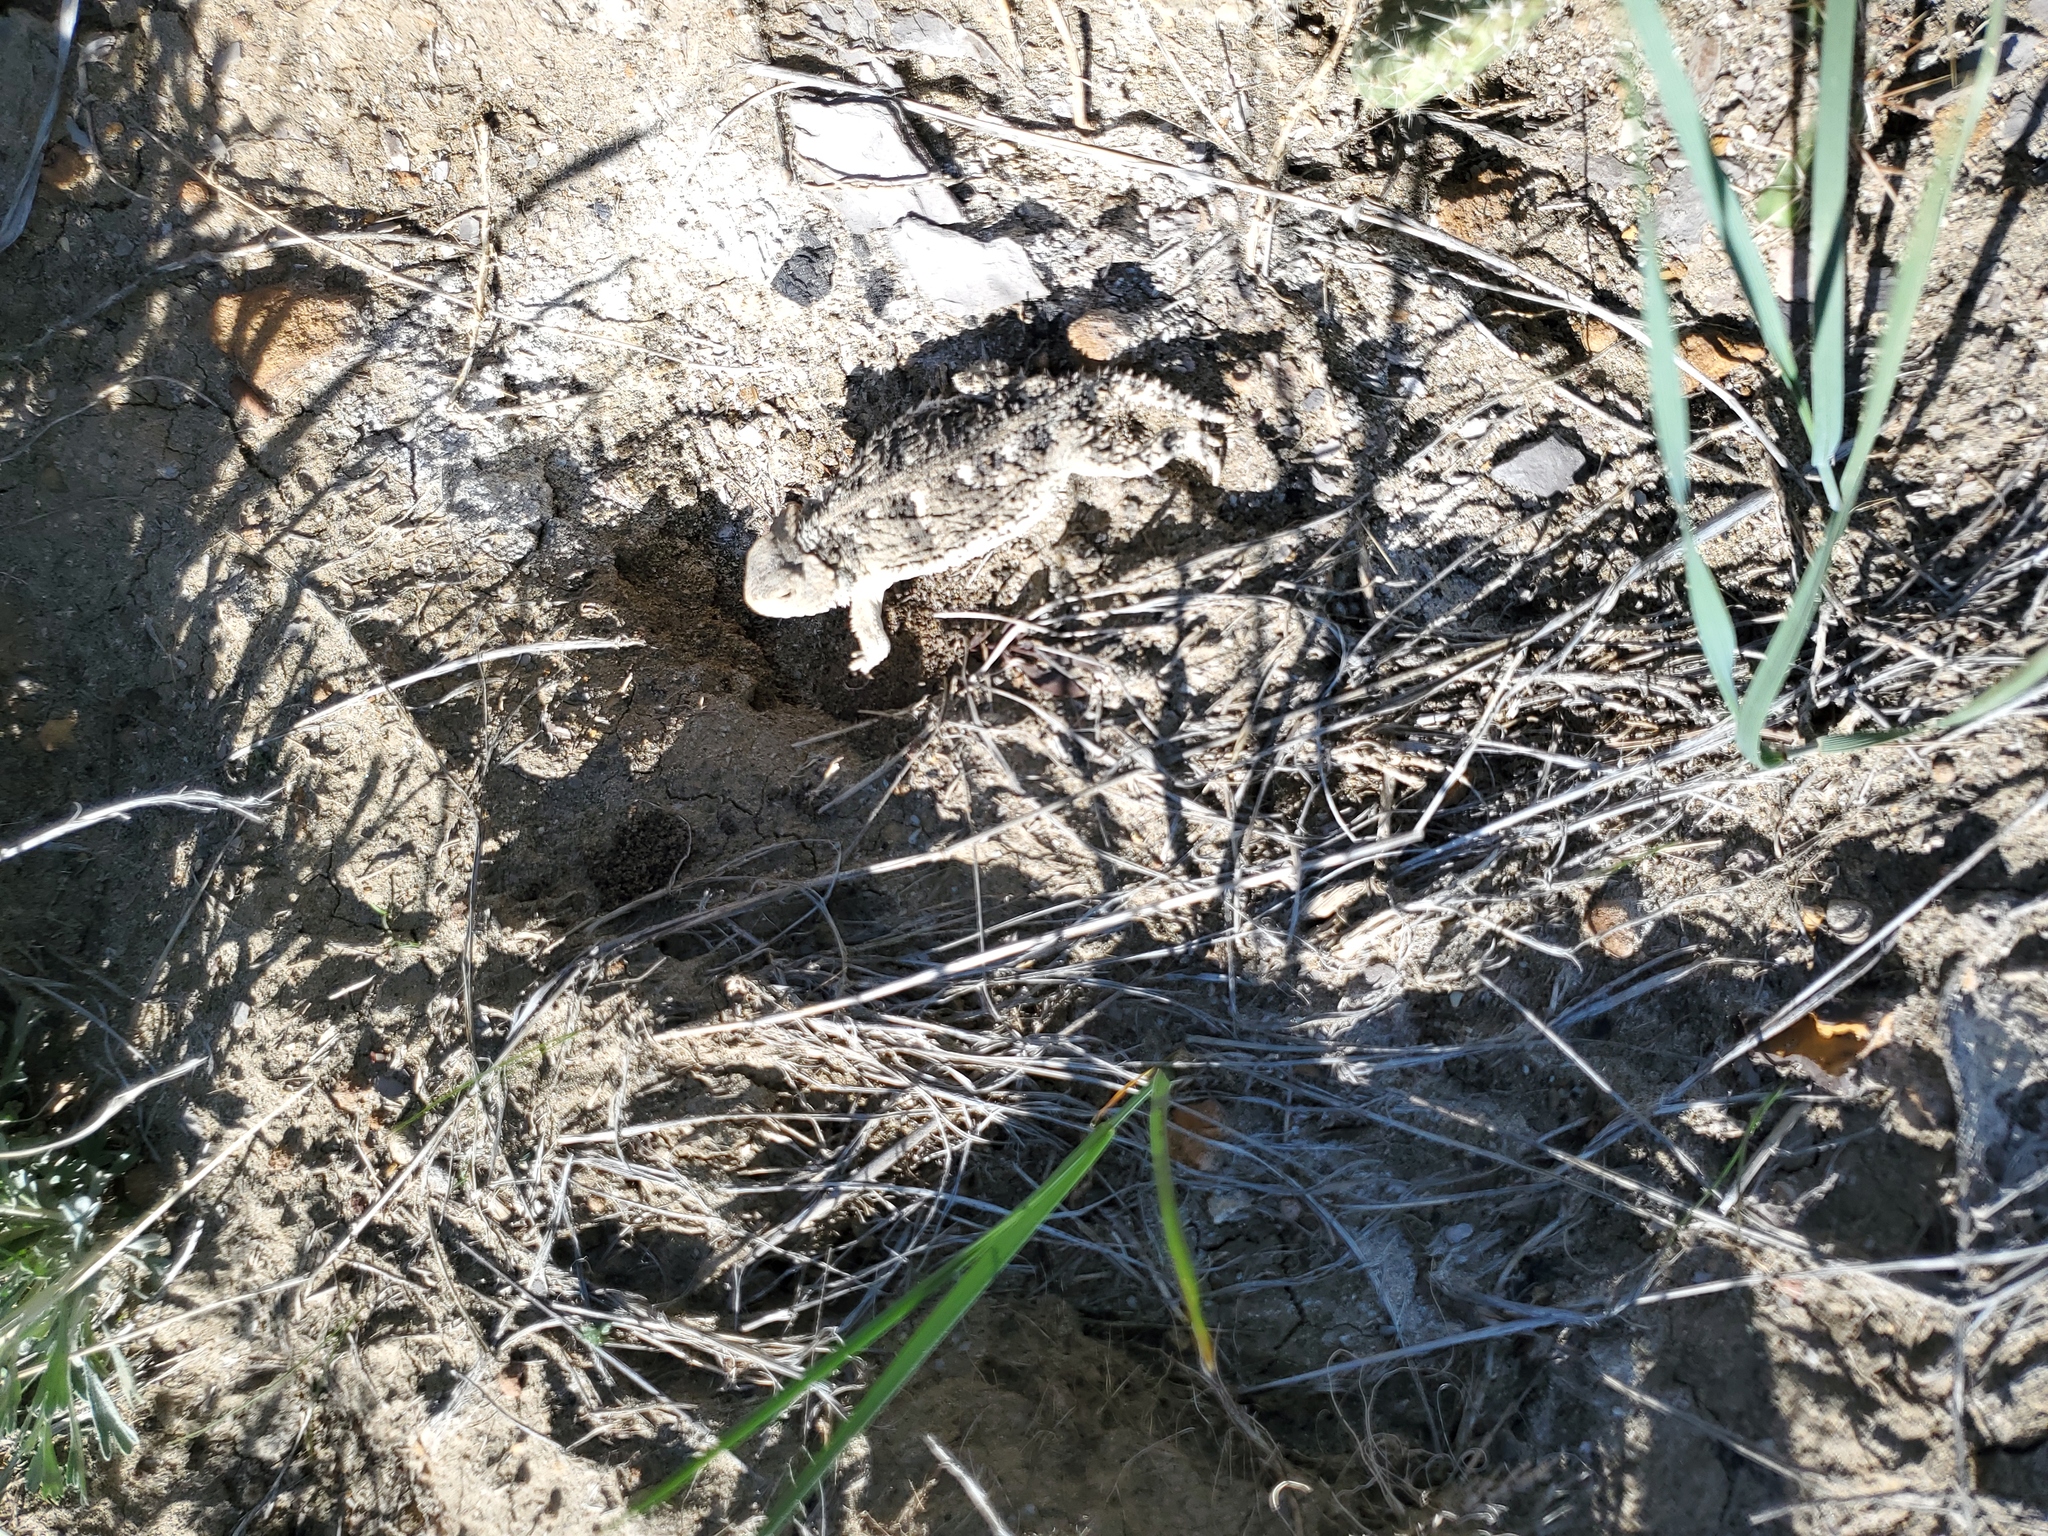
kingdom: Animalia
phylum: Chordata
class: Squamata
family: Phrynosomatidae
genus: Phrynosoma
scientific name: Phrynosoma hernandesi
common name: Greater short-horned lizard
